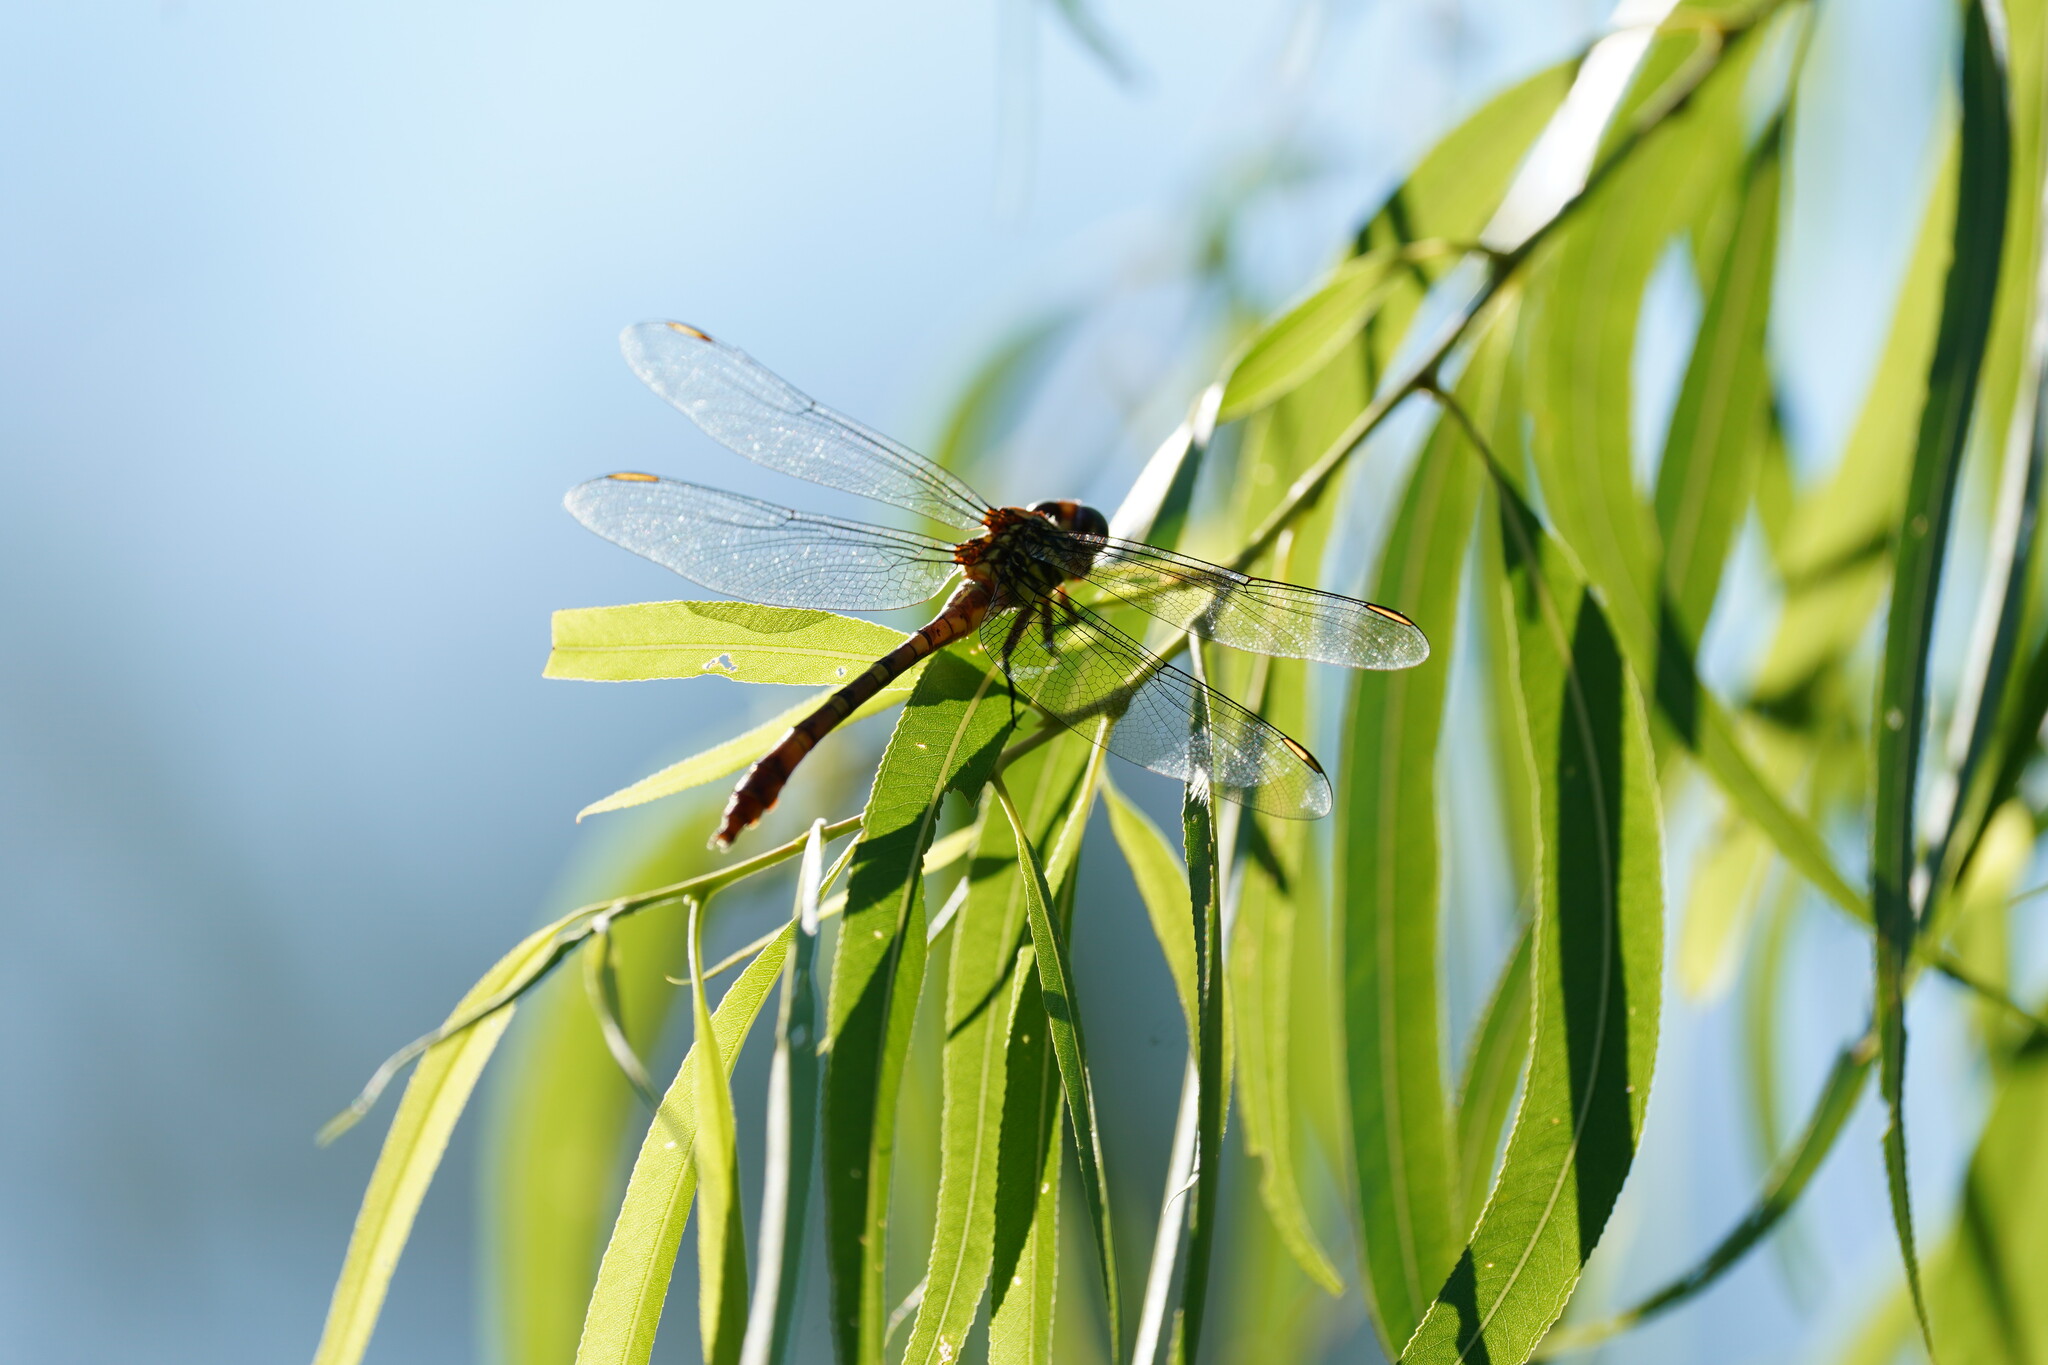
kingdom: Animalia
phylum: Arthropoda
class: Insecta
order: Odonata
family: Gomphidae
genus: Aphylla
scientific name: Aphylla angustifolia
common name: Broad-striped forceptail
